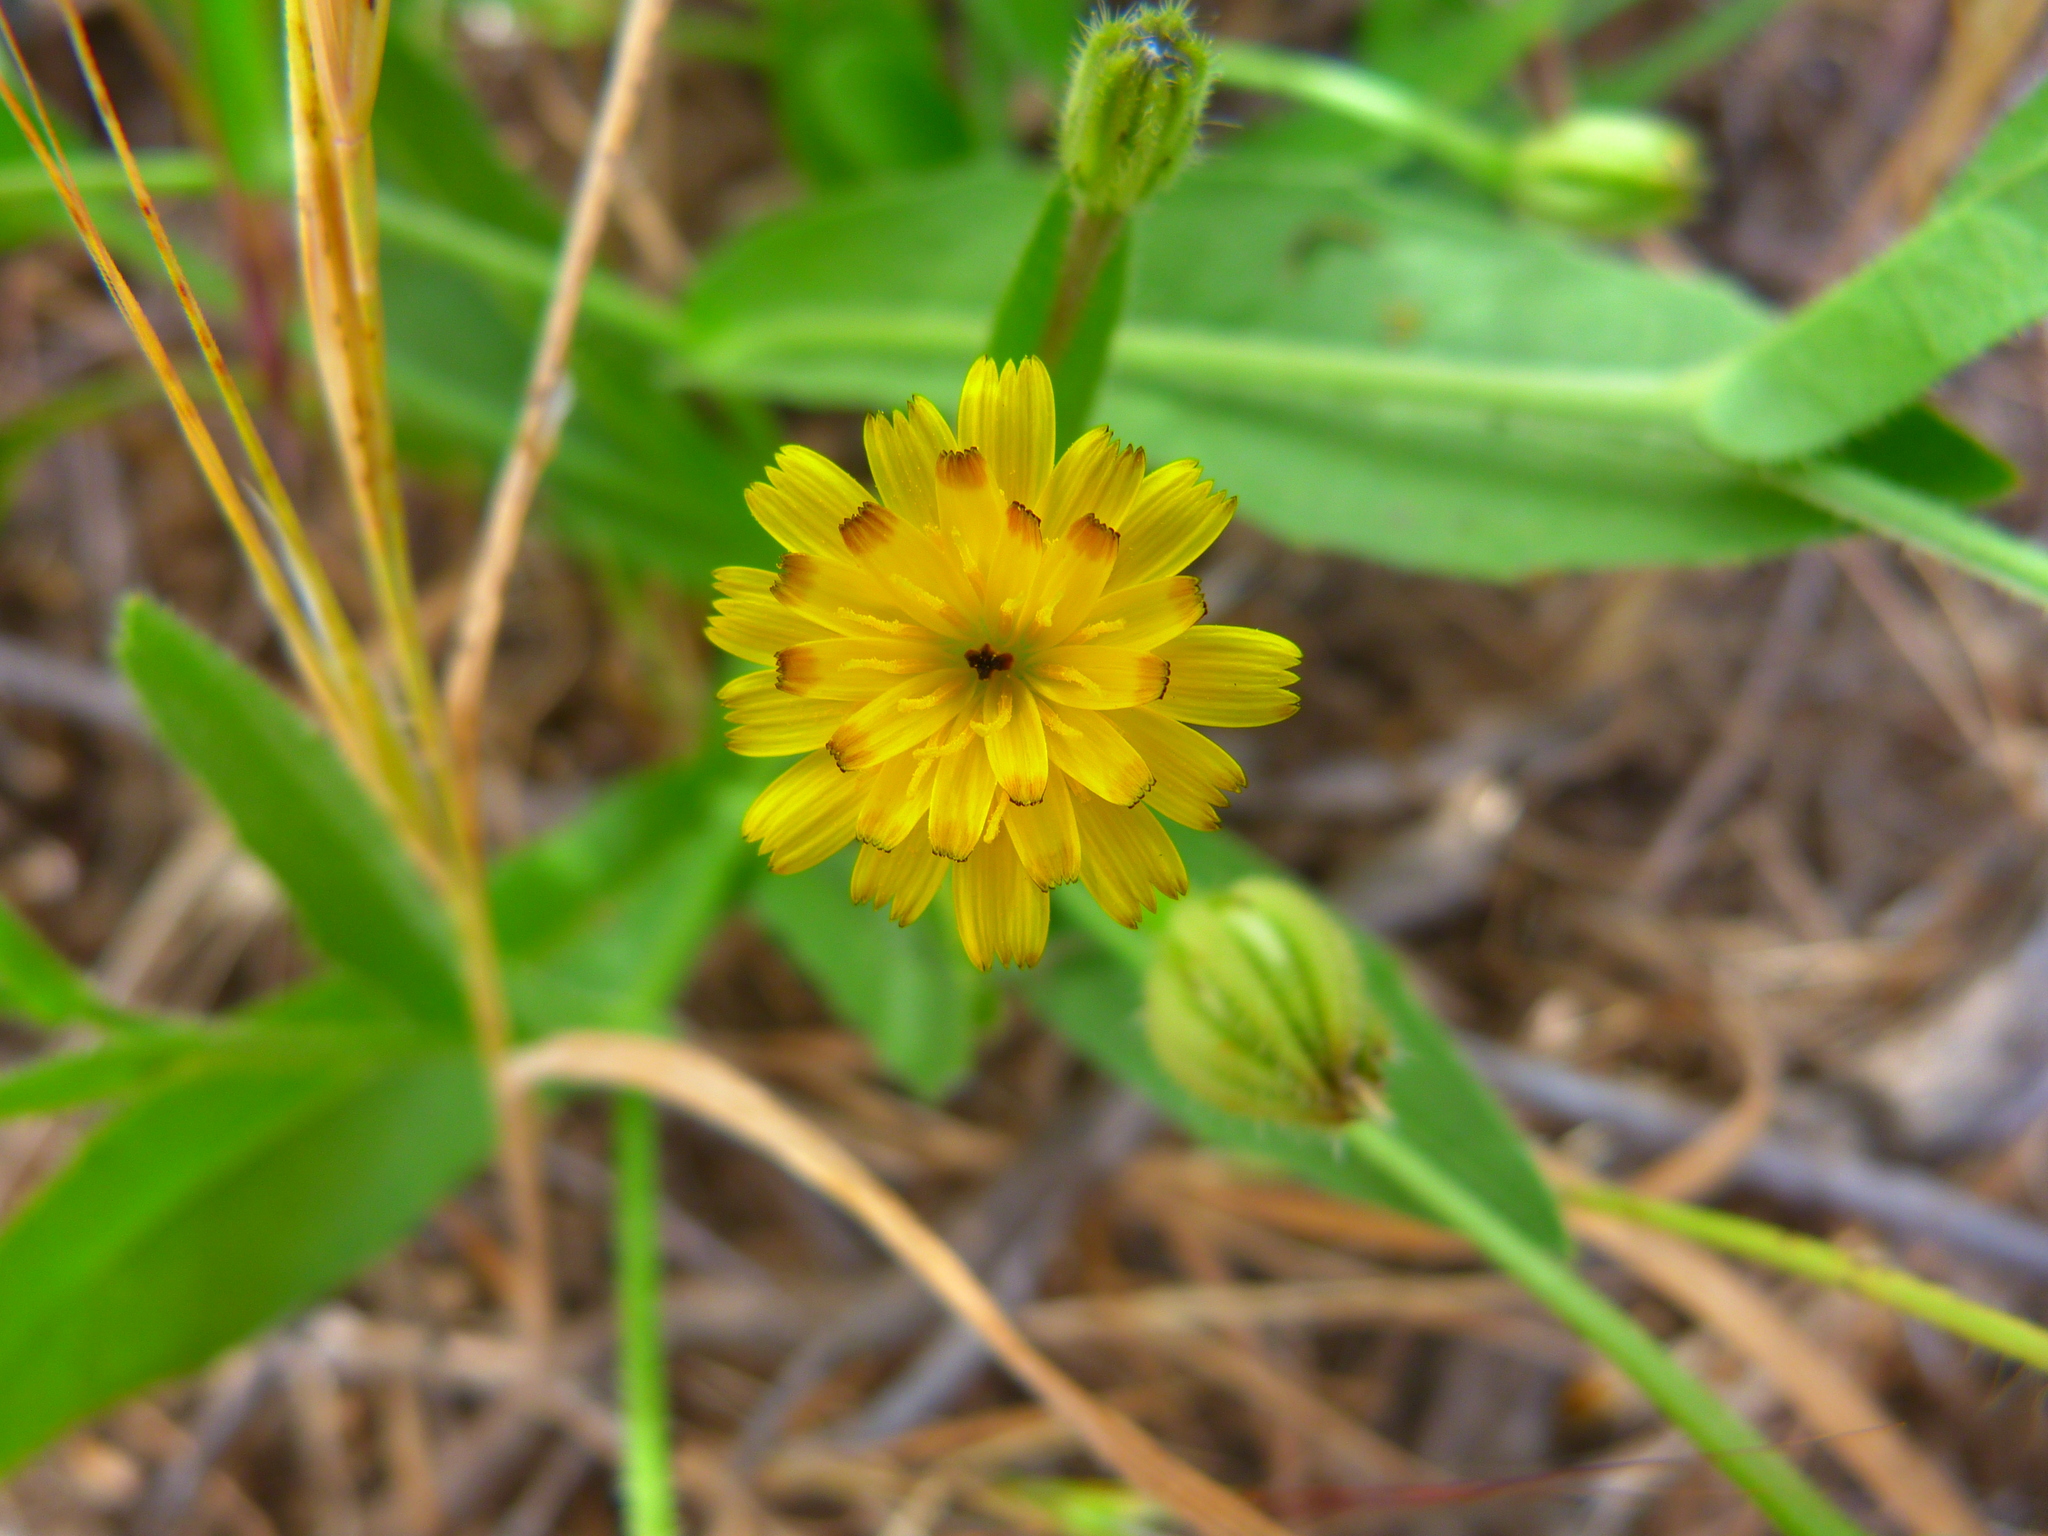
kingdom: Plantae
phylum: Tracheophyta
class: Magnoliopsida
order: Asterales
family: Asteraceae
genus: Hedypnois
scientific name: Hedypnois rhagadioloides
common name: Cretan weed
